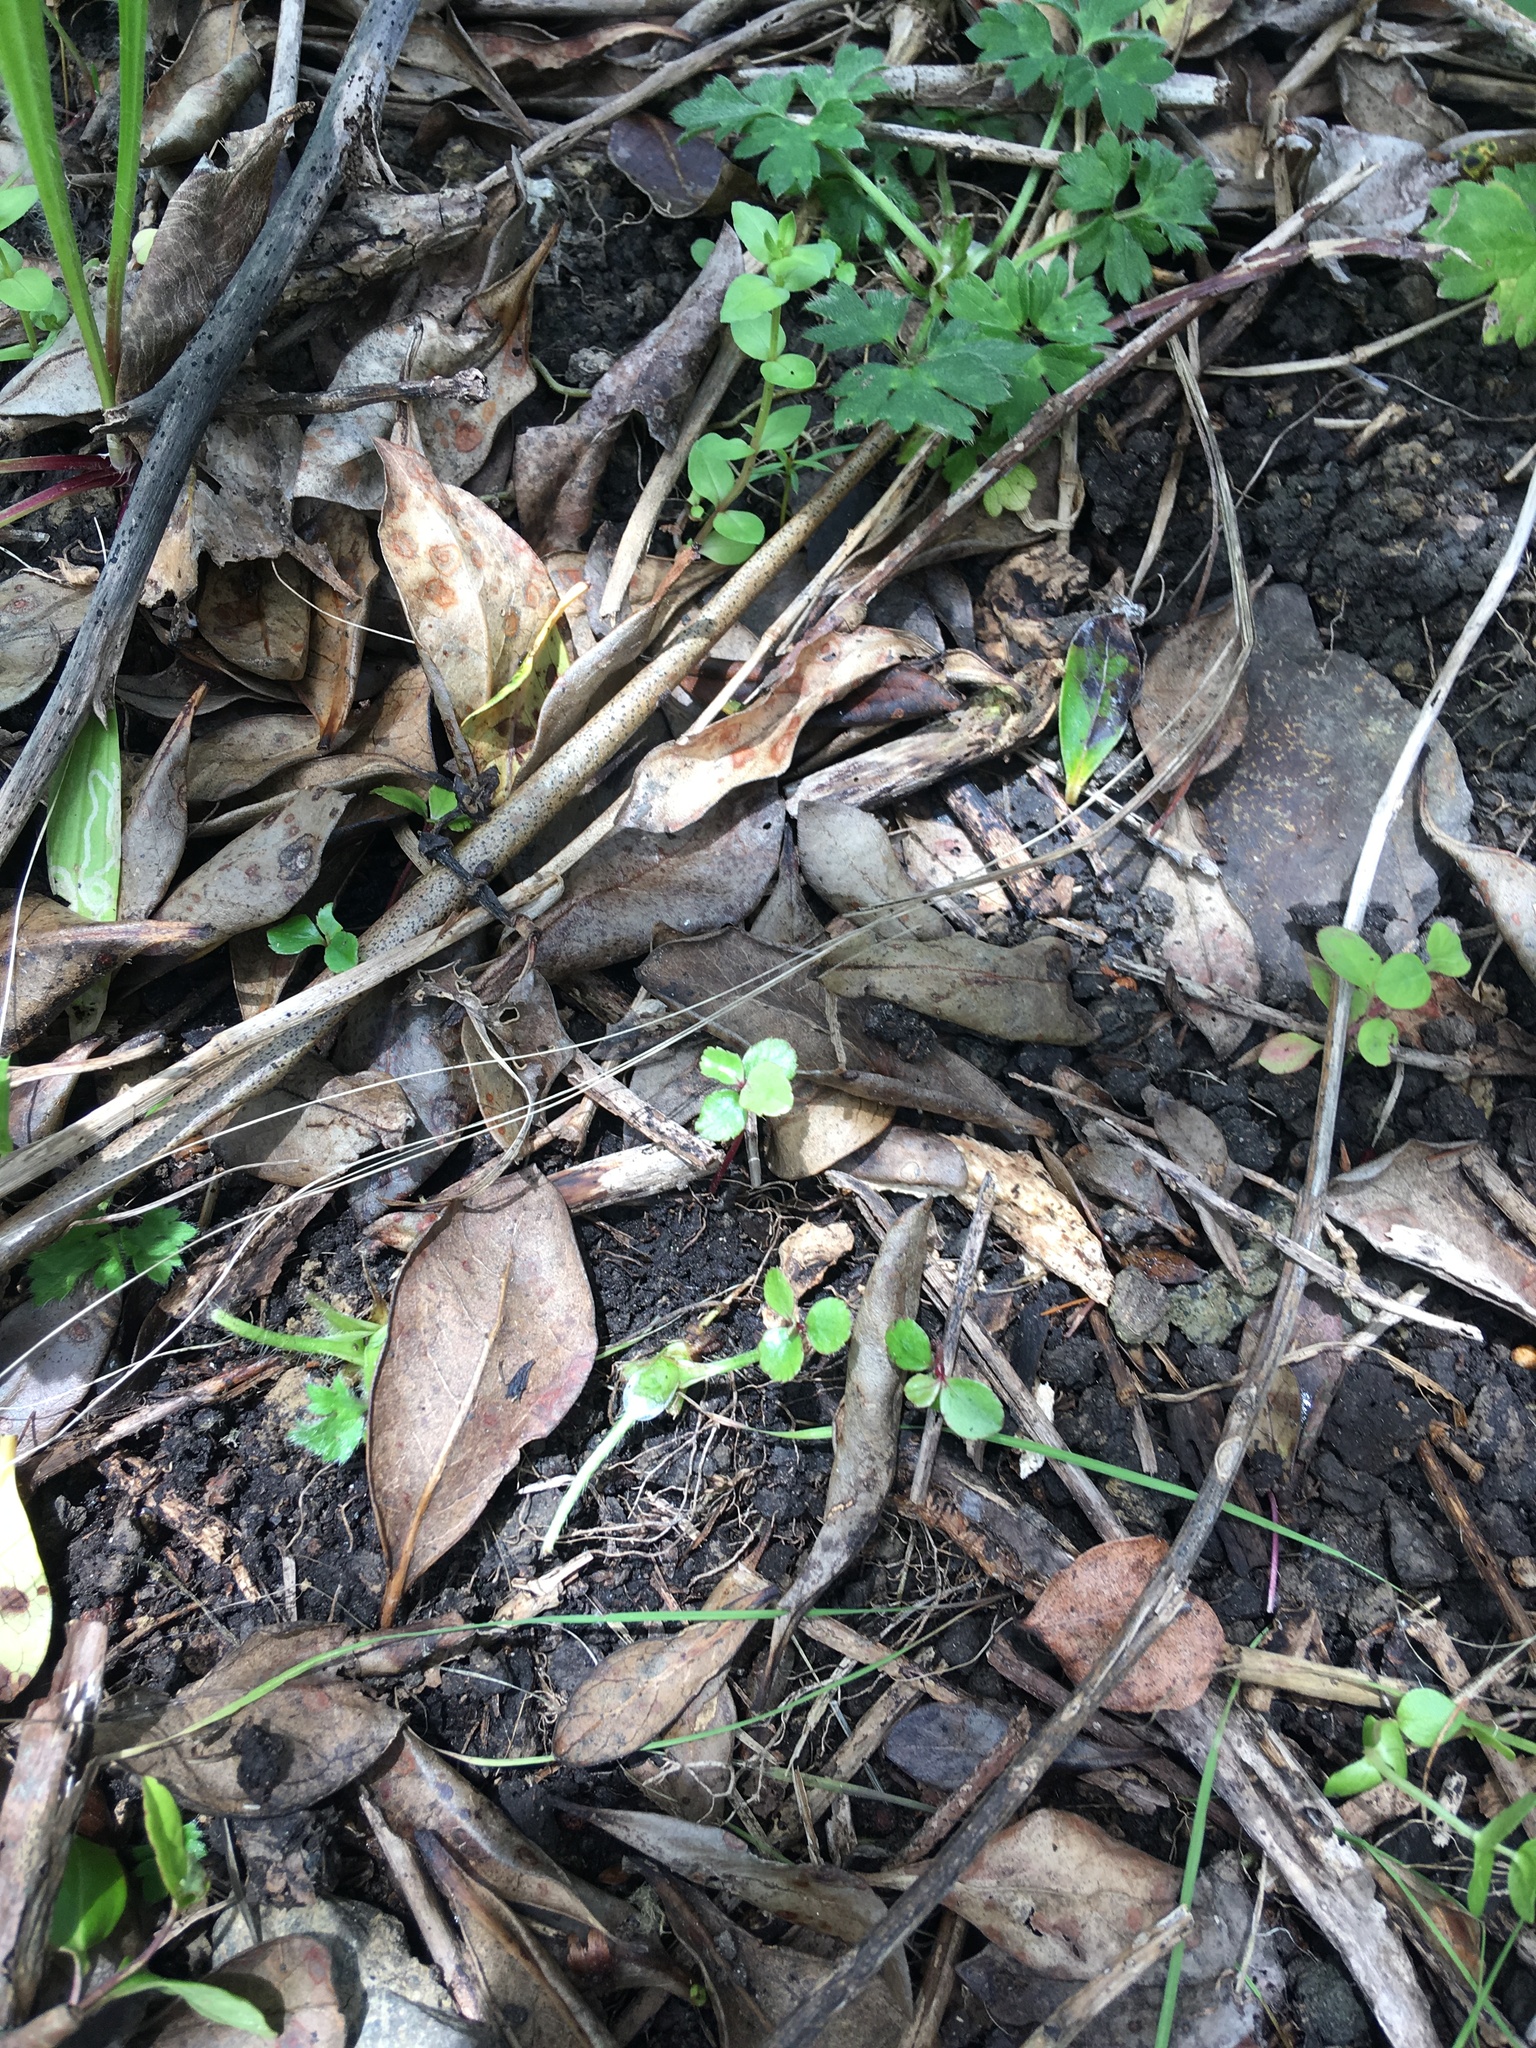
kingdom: Plantae
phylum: Tracheophyta
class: Magnoliopsida
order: Ericales
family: Primulaceae
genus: Lysimachia
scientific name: Lysimachia arvensis
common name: Scarlet pimpernel
